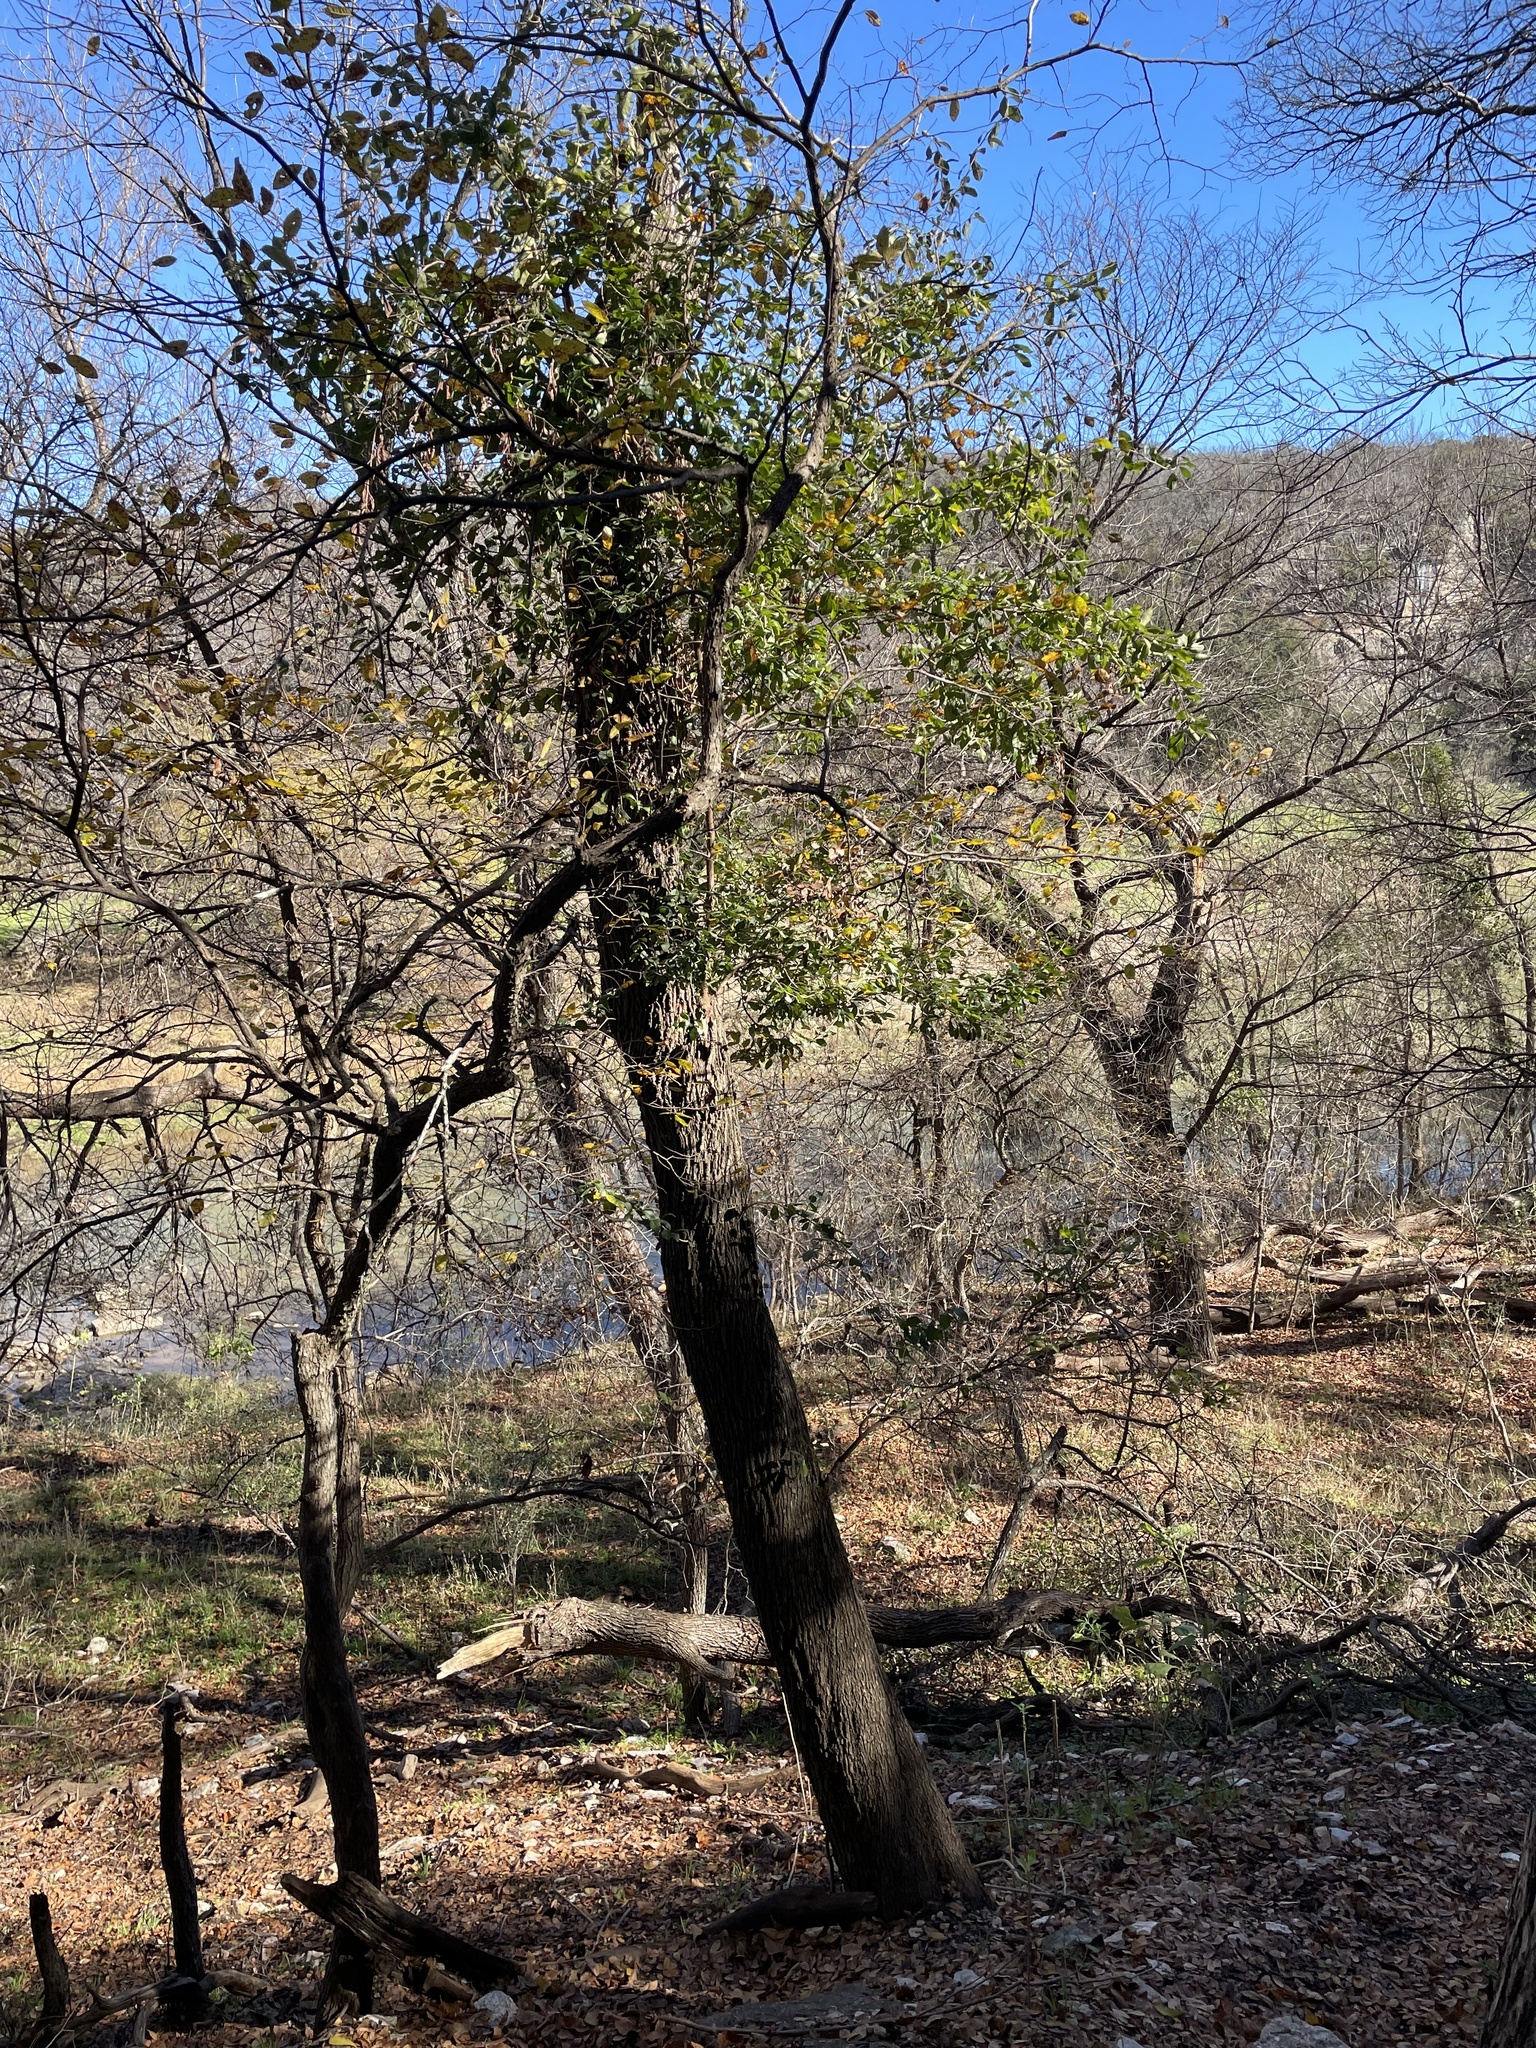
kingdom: Plantae
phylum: Tracheophyta
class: Magnoliopsida
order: Ericales
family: Sapotaceae
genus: Sideroxylon
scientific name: Sideroxylon lanuginosum
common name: Chittamwood
